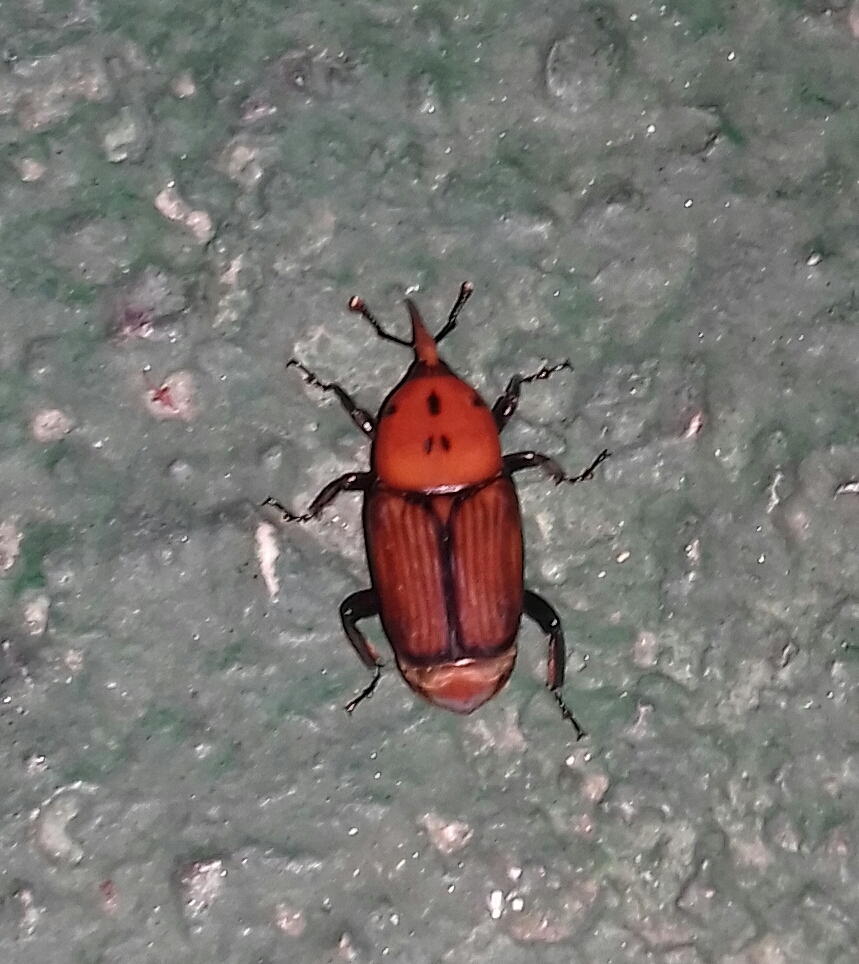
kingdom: Animalia
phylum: Arthropoda
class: Insecta
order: Coleoptera
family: Dryophthoridae
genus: Rhynchophorus
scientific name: Rhynchophorus ferrugineus
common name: Red palm weevil
